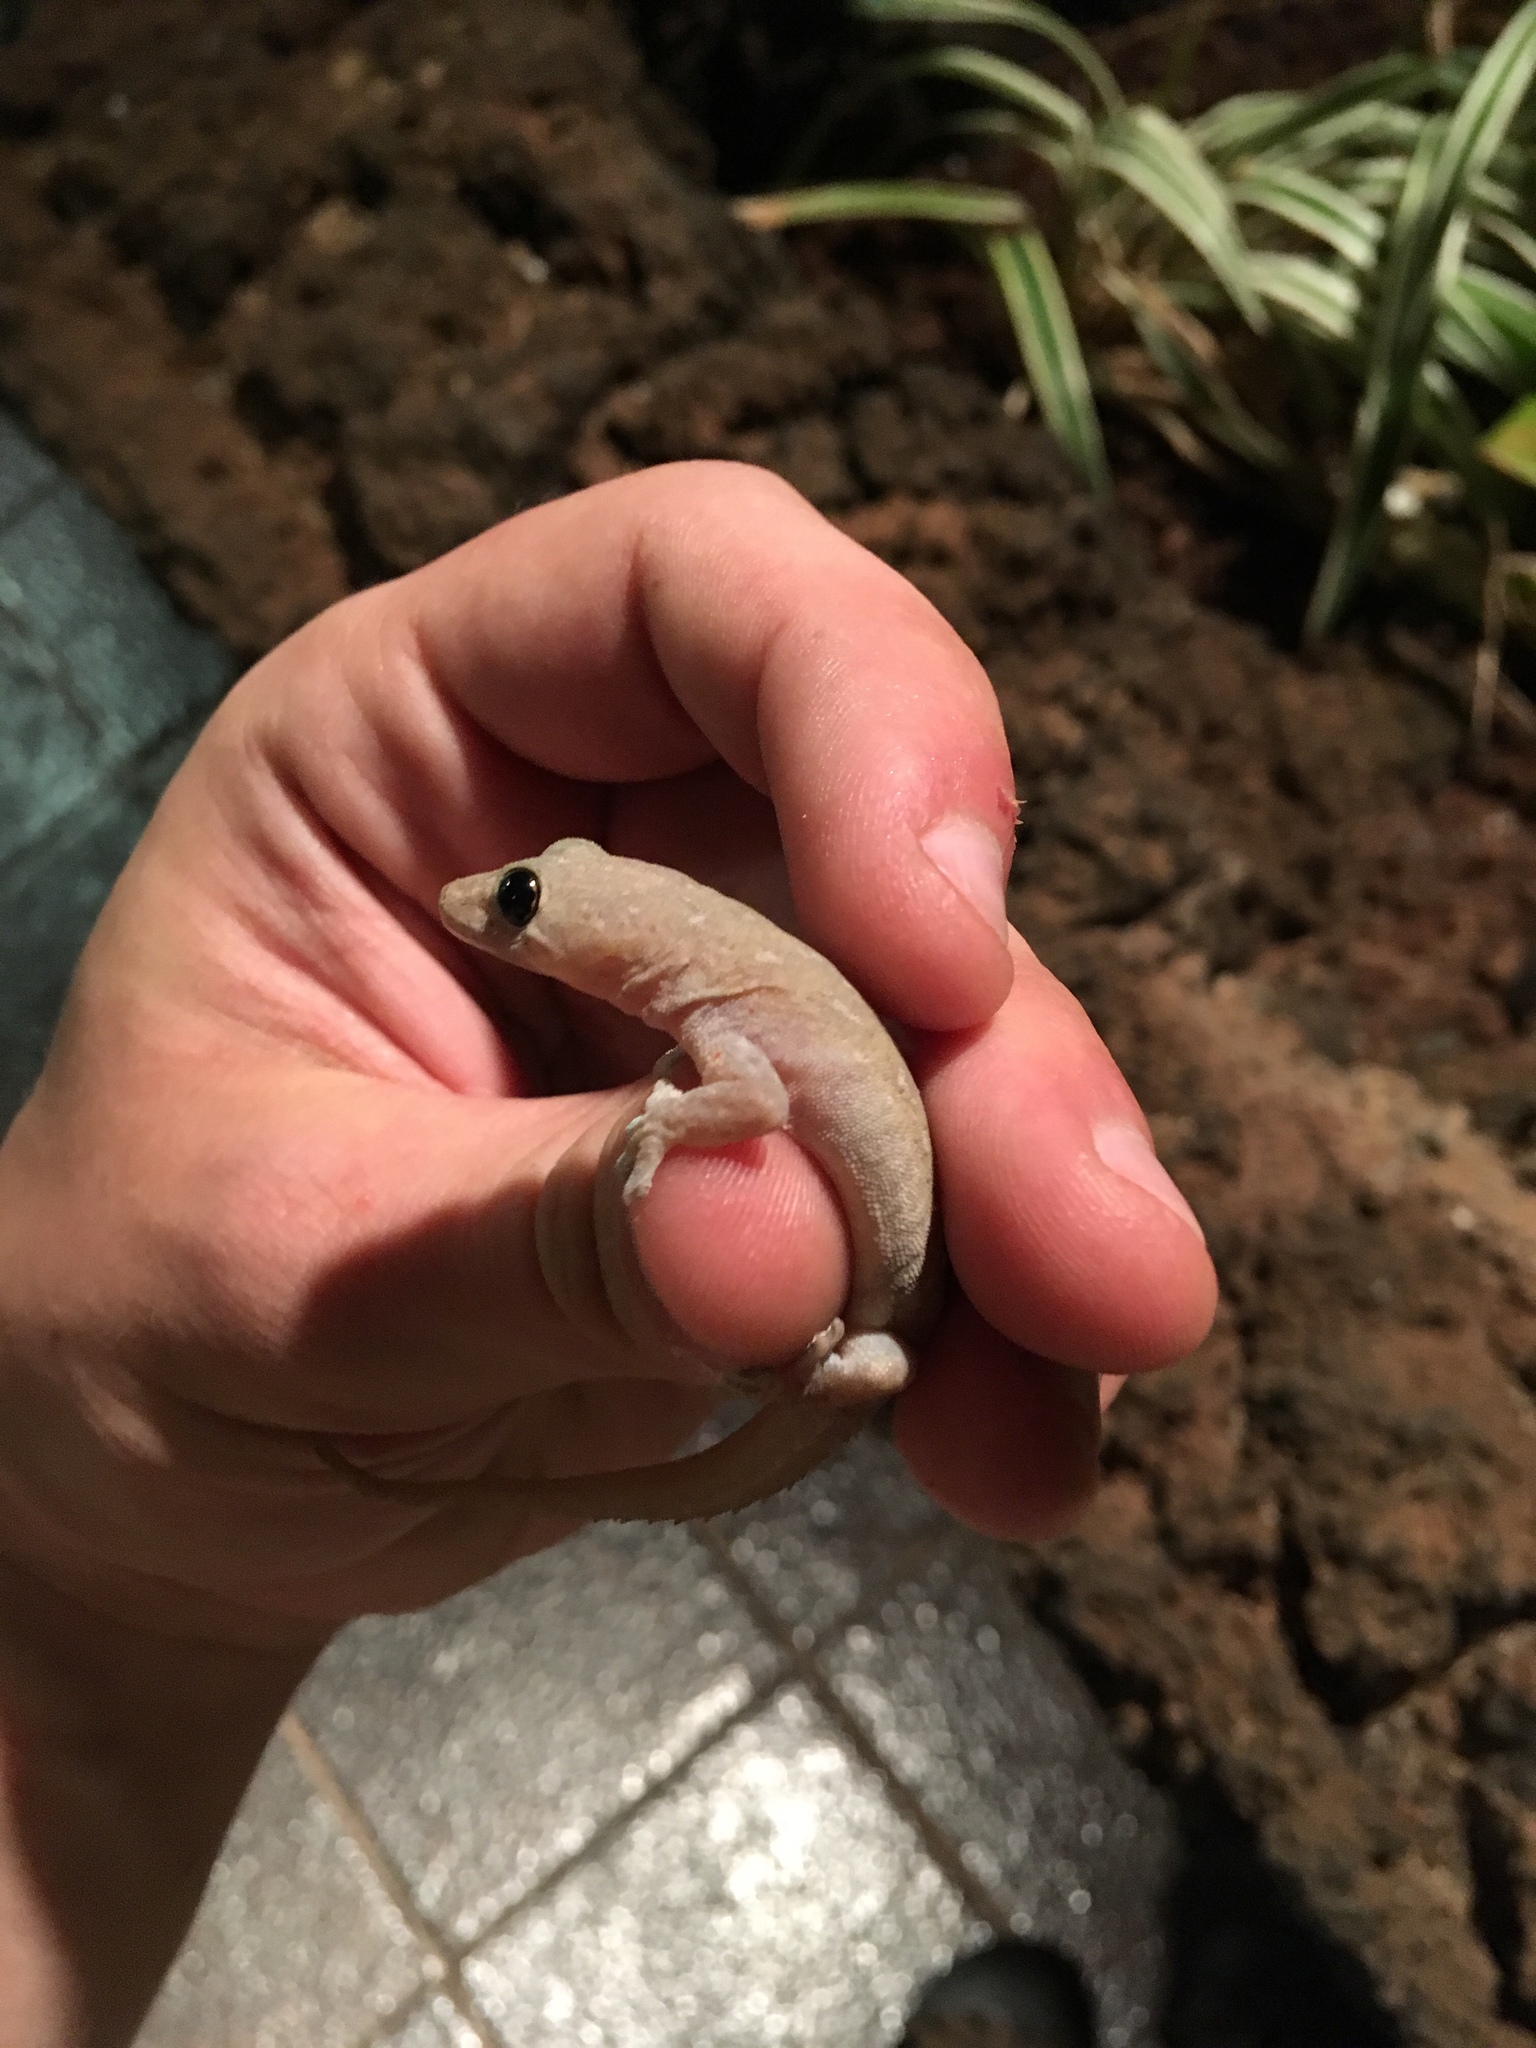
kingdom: Animalia
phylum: Chordata
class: Squamata
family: Gekkonidae
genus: Hemidactylus
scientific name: Hemidactylus frenatus
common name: Common house gecko
